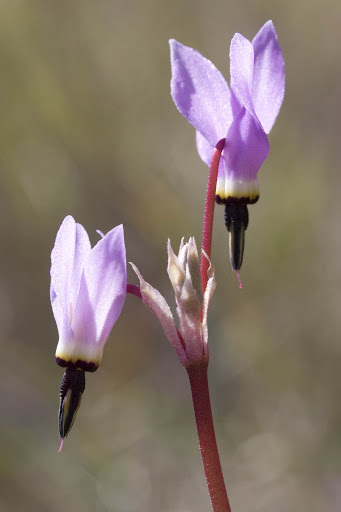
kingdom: Plantae
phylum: Tracheophyta
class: Magnoliopsida
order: Ericales
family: Primulaceae
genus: Dodecatheon
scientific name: Dodecatheon hendersonii
